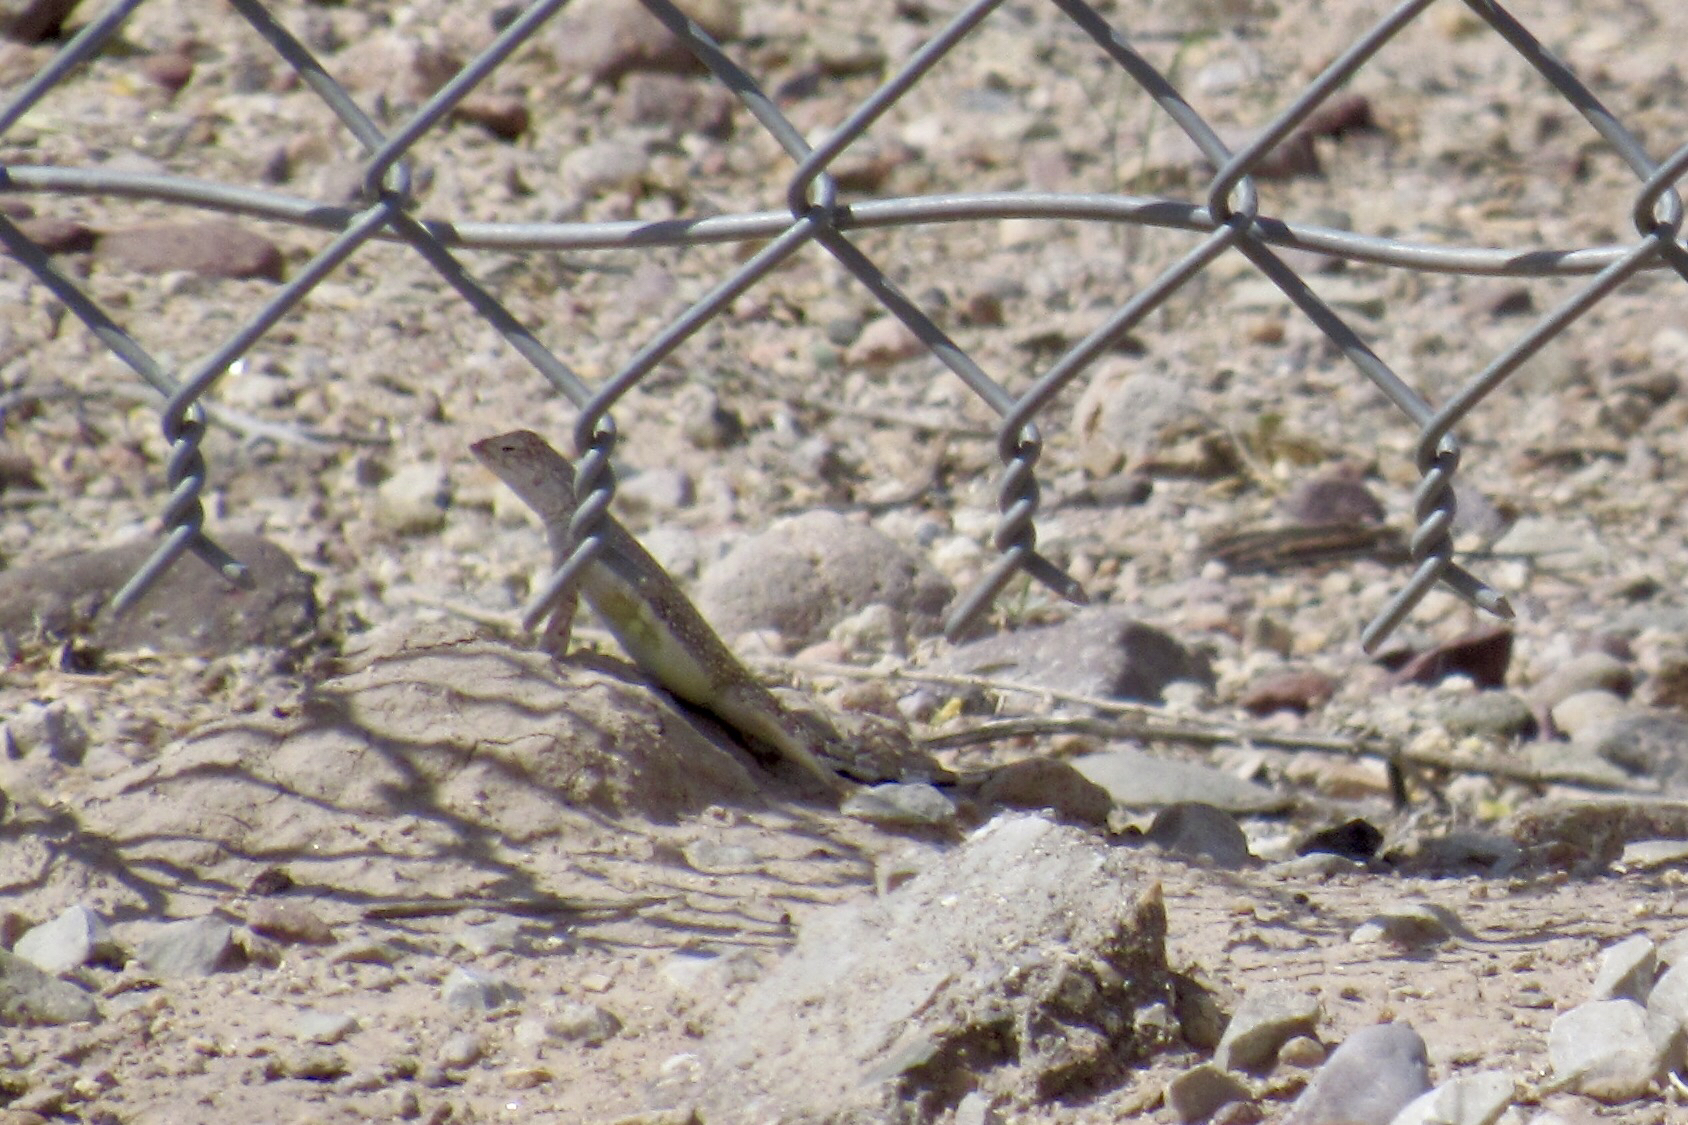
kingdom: Animalia
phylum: Chordata
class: Squamata
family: Phrynosomatidae
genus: Callisaurus
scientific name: Callisaurus draconoides
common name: Zebra-tailed lizard
